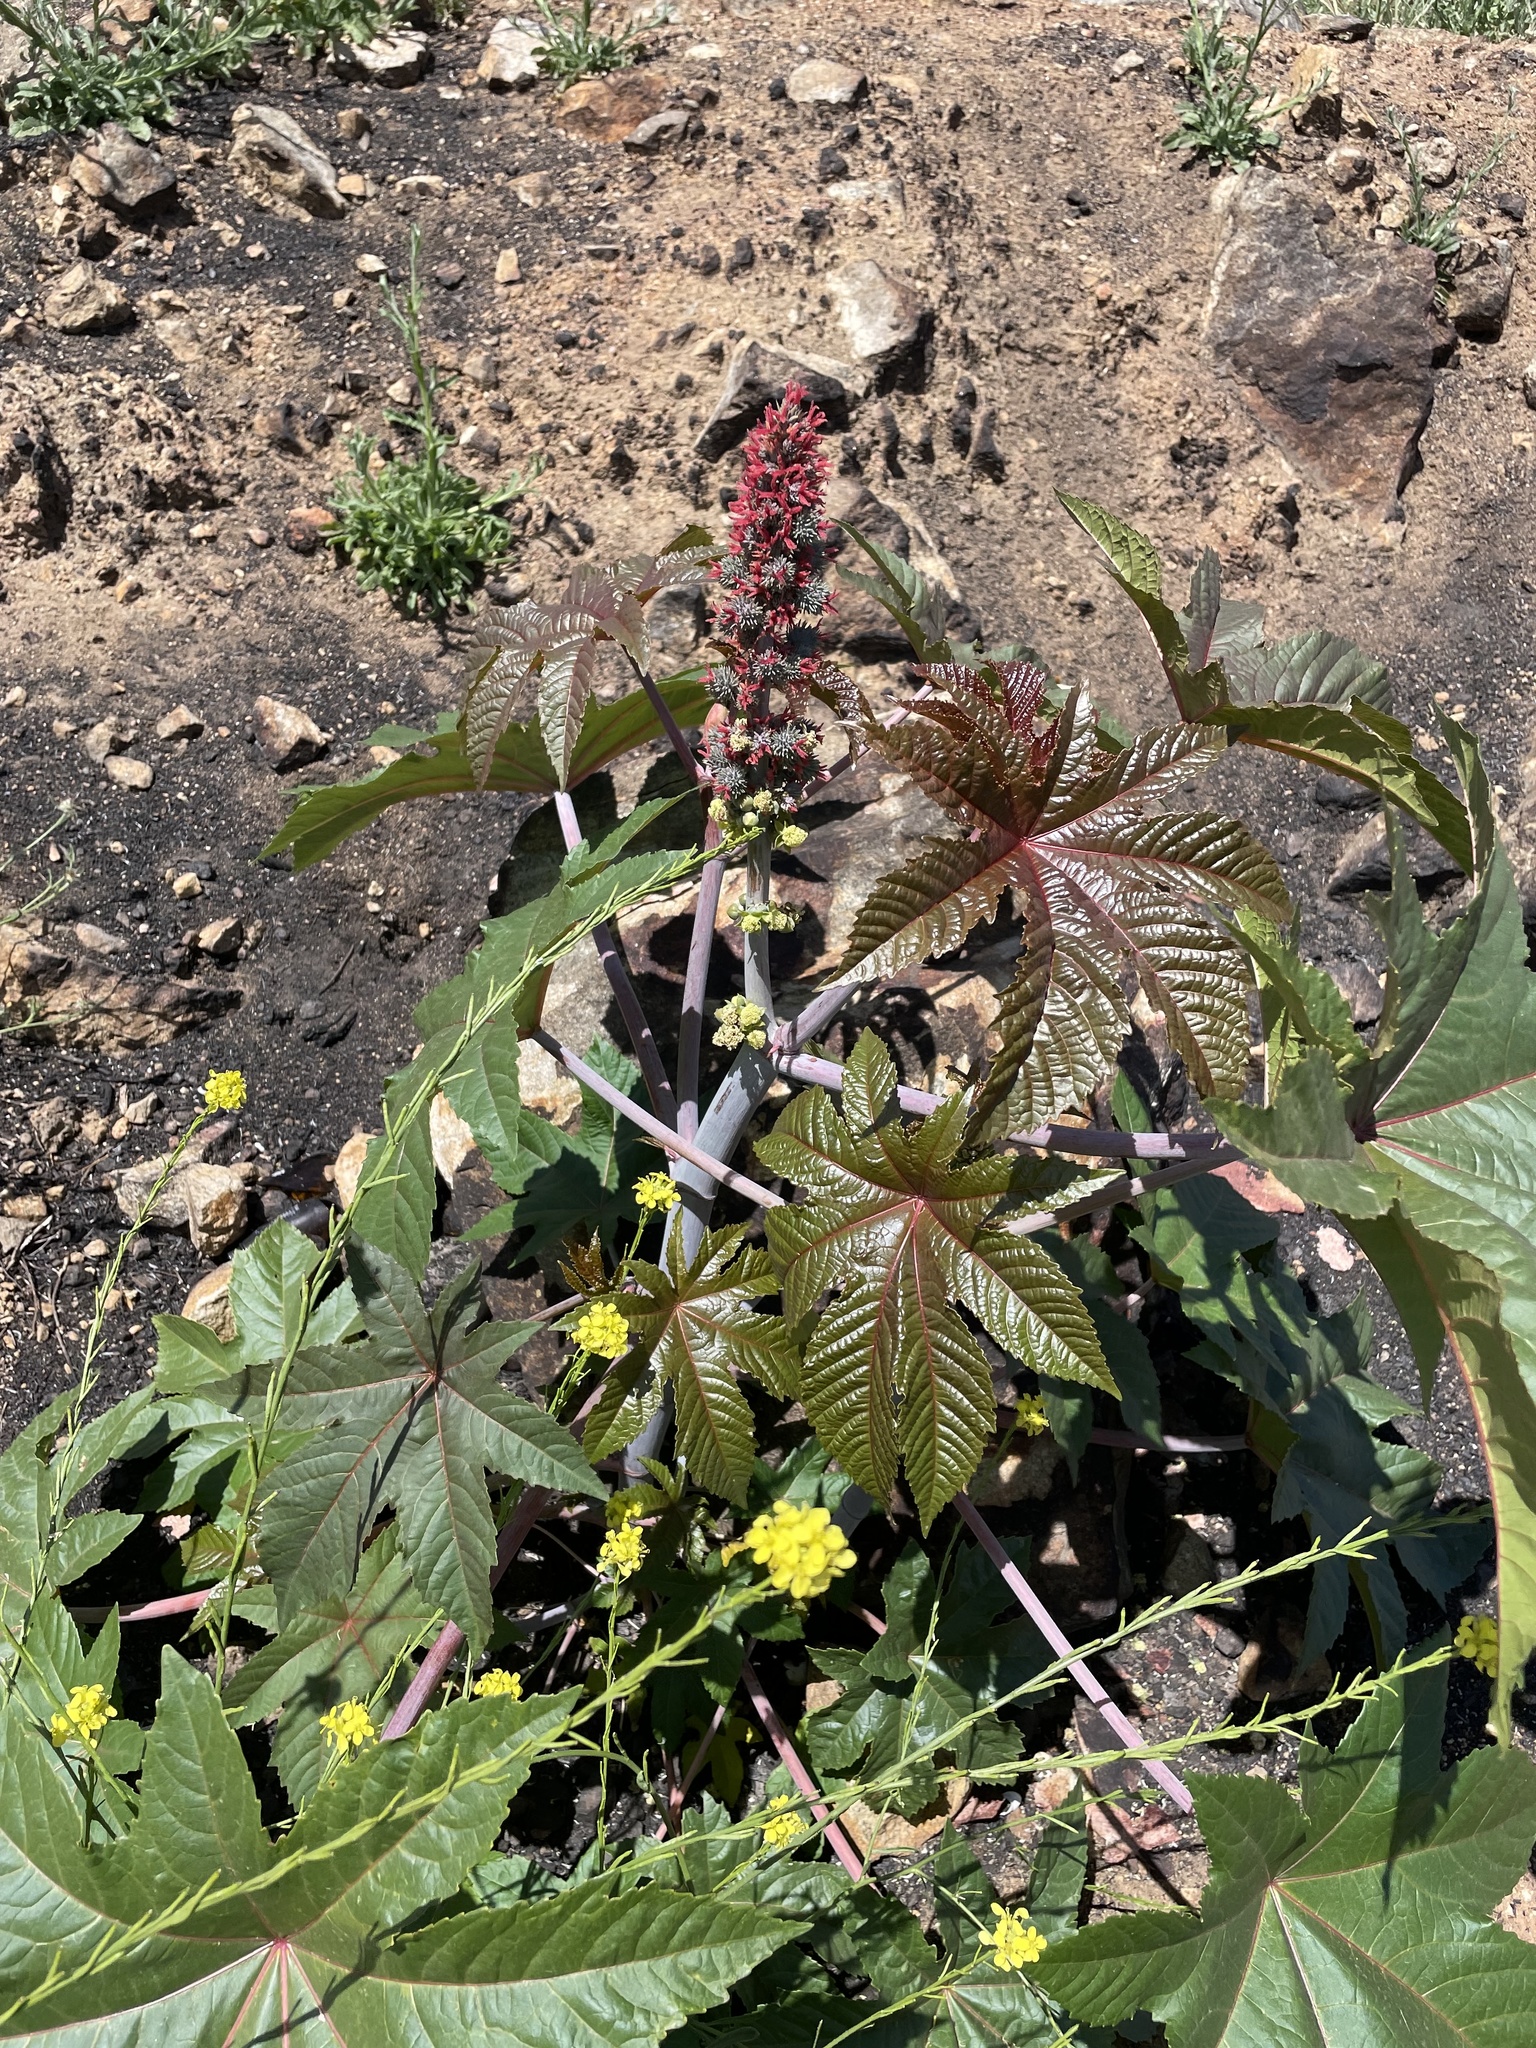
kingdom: Plantae
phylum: Tracheophyta
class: Magnoliopsida
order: Malpighiales
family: Euphorbiaceae
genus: Ricinus
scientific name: Ricinus communis
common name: Castor-oil-plant
